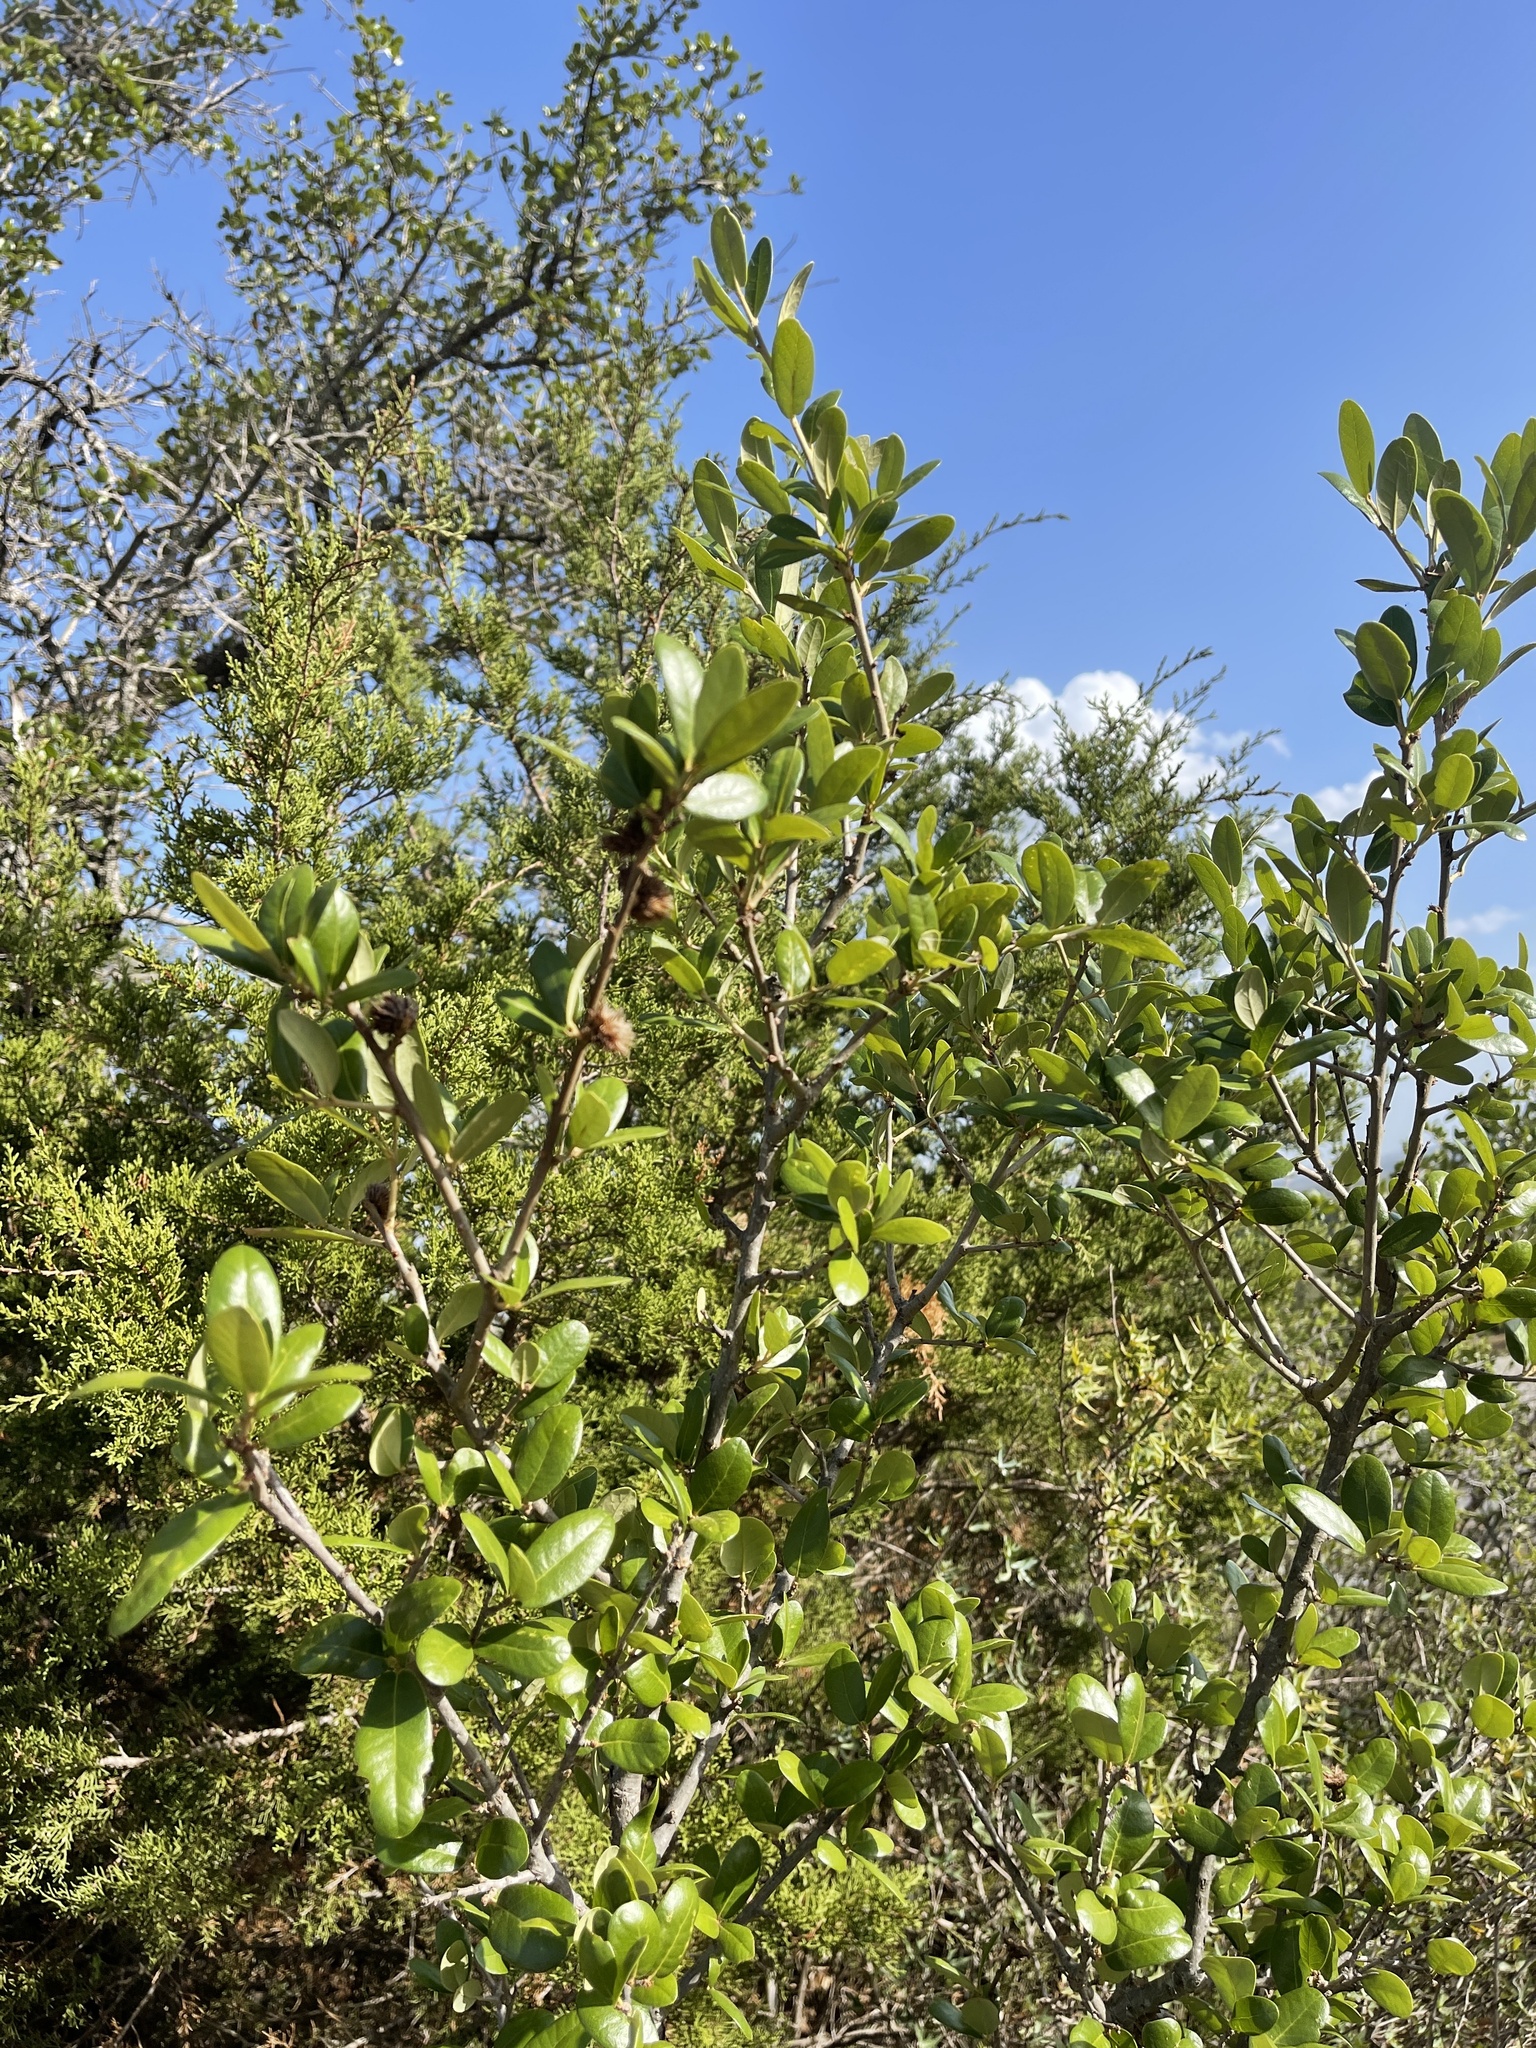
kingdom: Plantae
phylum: Tracheophyta
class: Magnoliopsida
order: Fagales
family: Fagaceae
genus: Quercus
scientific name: Quercus fusiformis
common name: Texas live oak
